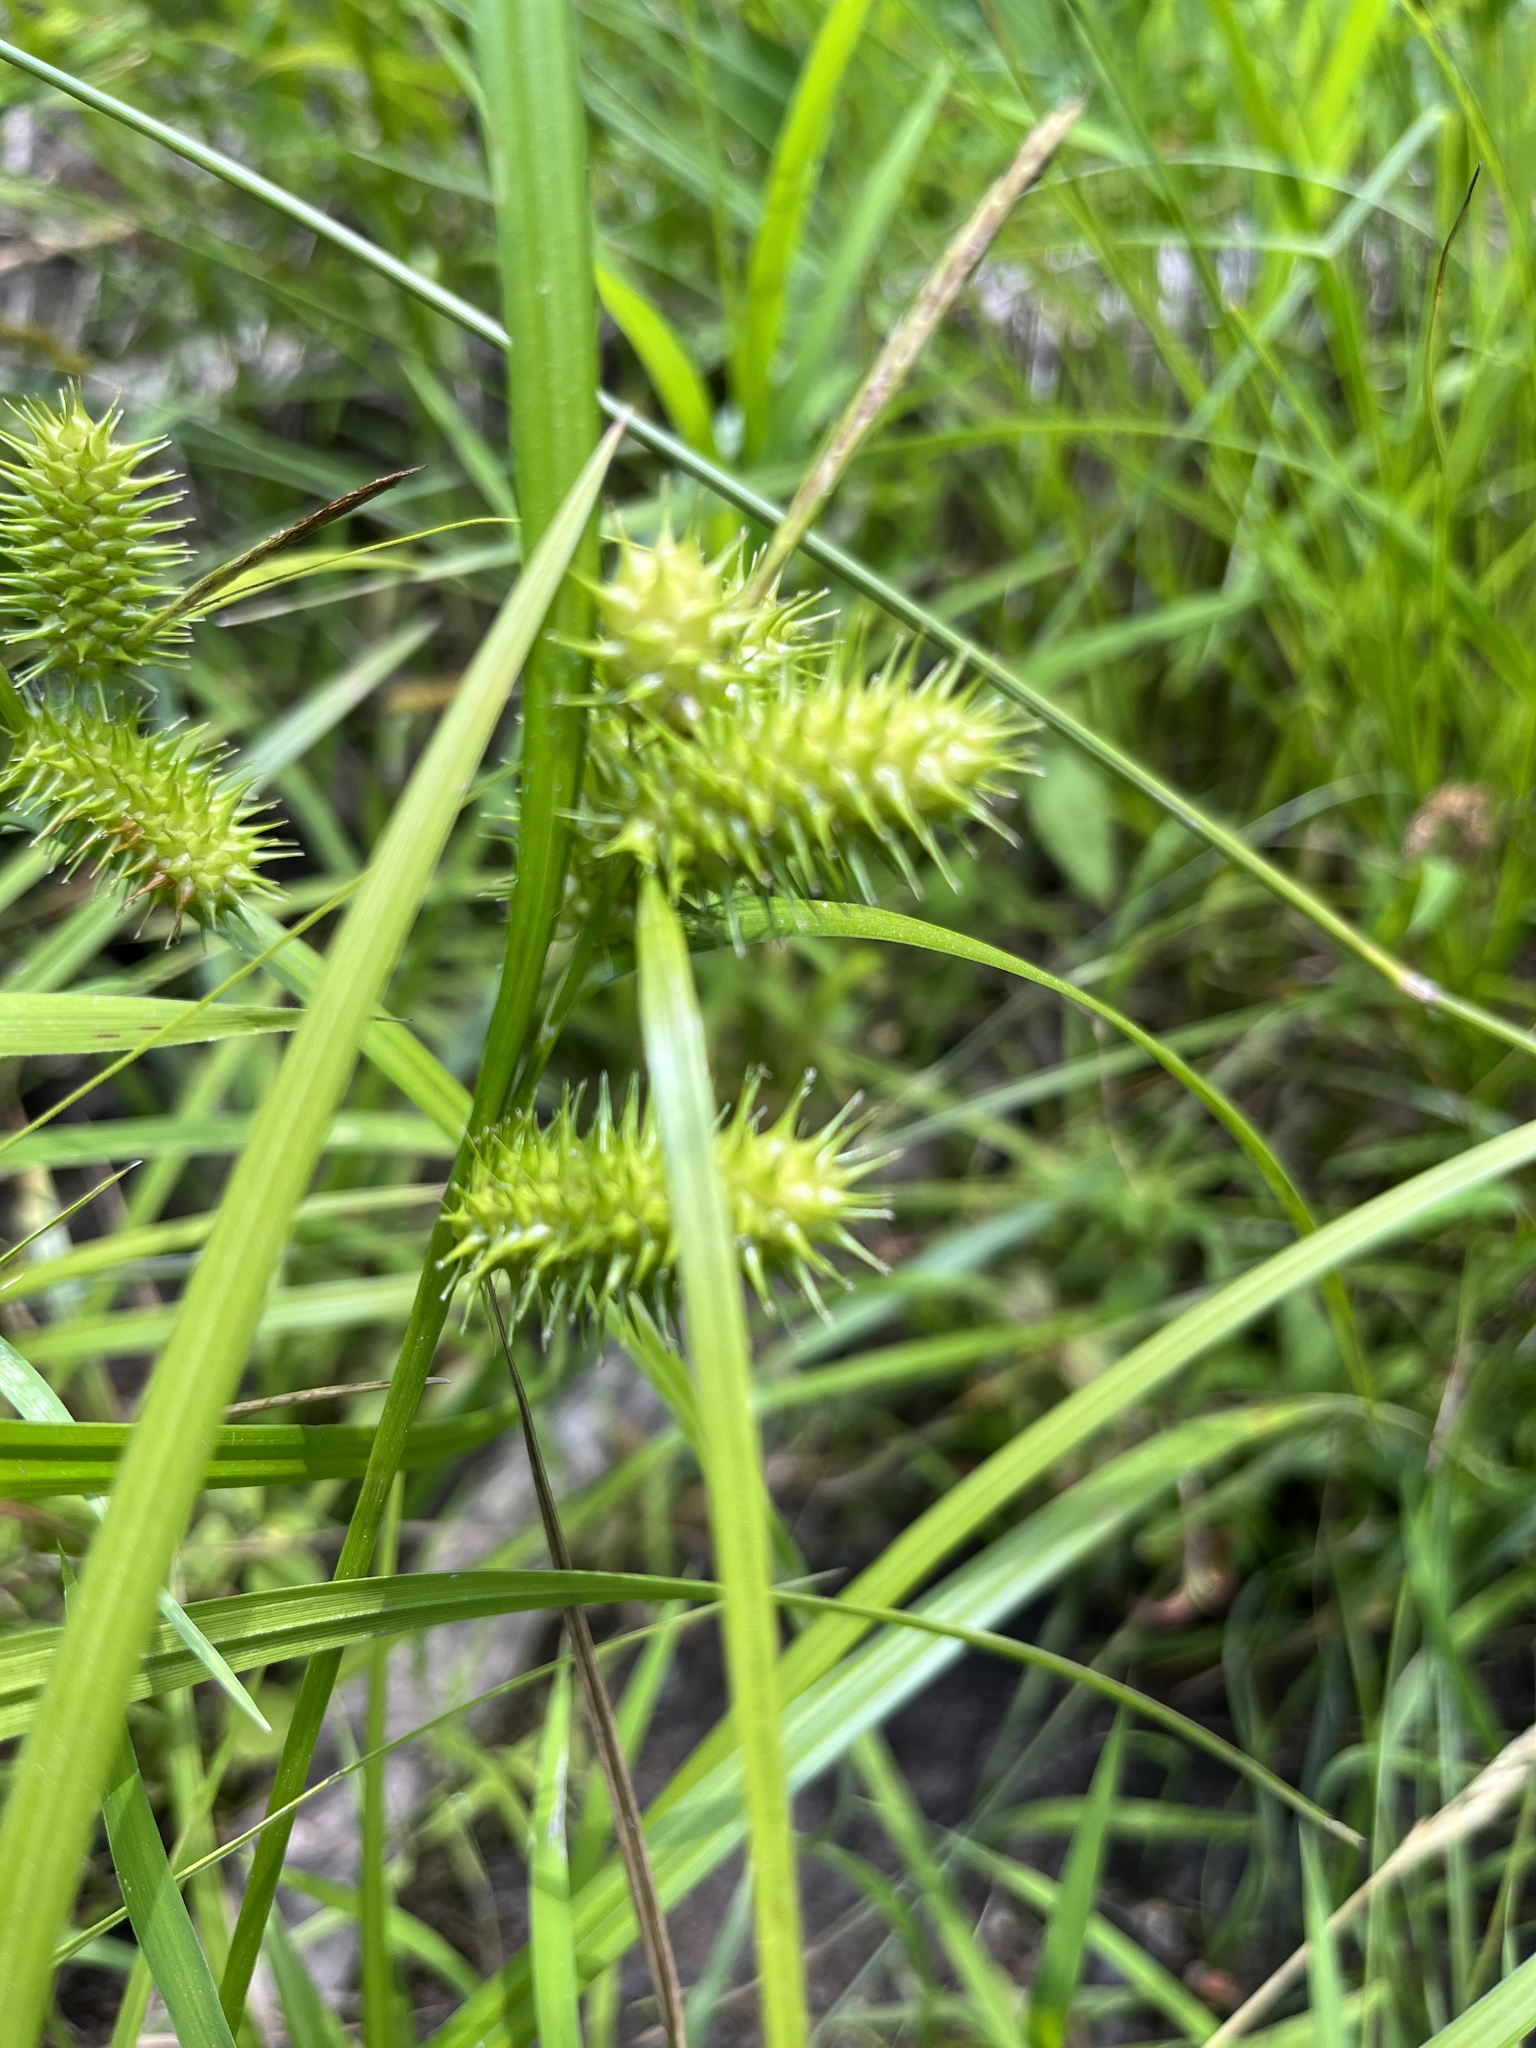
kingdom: Plantae
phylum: Tracheophyta
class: Liliopsida
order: Poales
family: Cyperaceae
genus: Carex
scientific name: Carex lurida
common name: Sallow sedge
